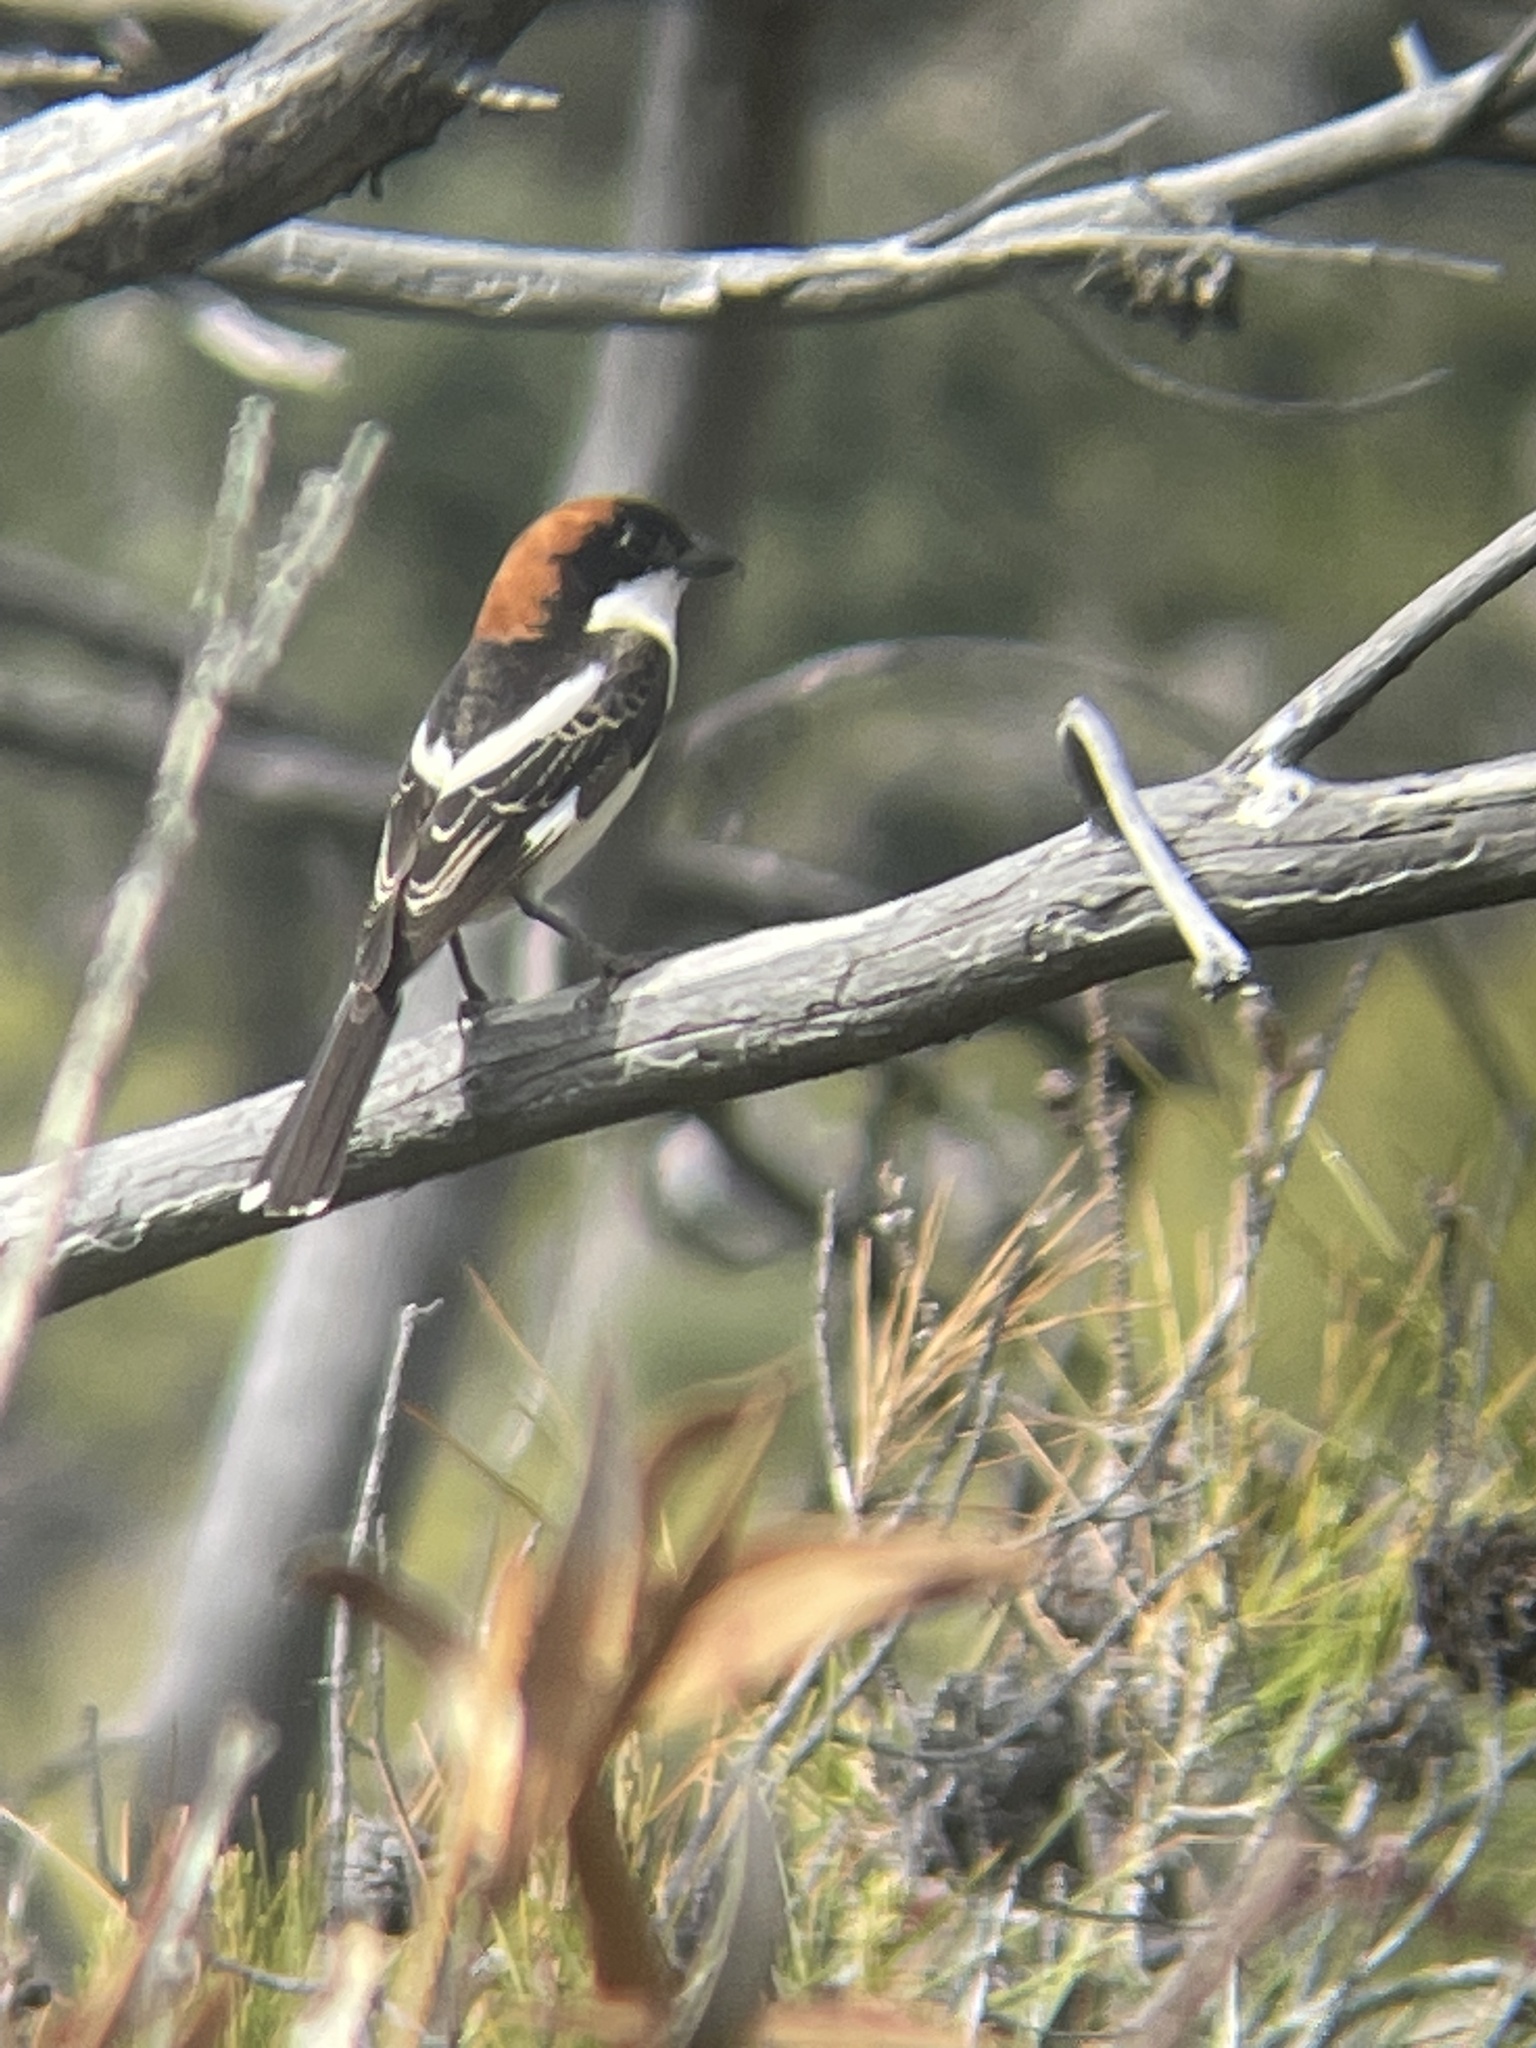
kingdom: Animalia
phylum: Chordata
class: Aves
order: Passeriformes
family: Laniidae
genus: Lanius
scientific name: Lanius senator
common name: Woodchat shrike
